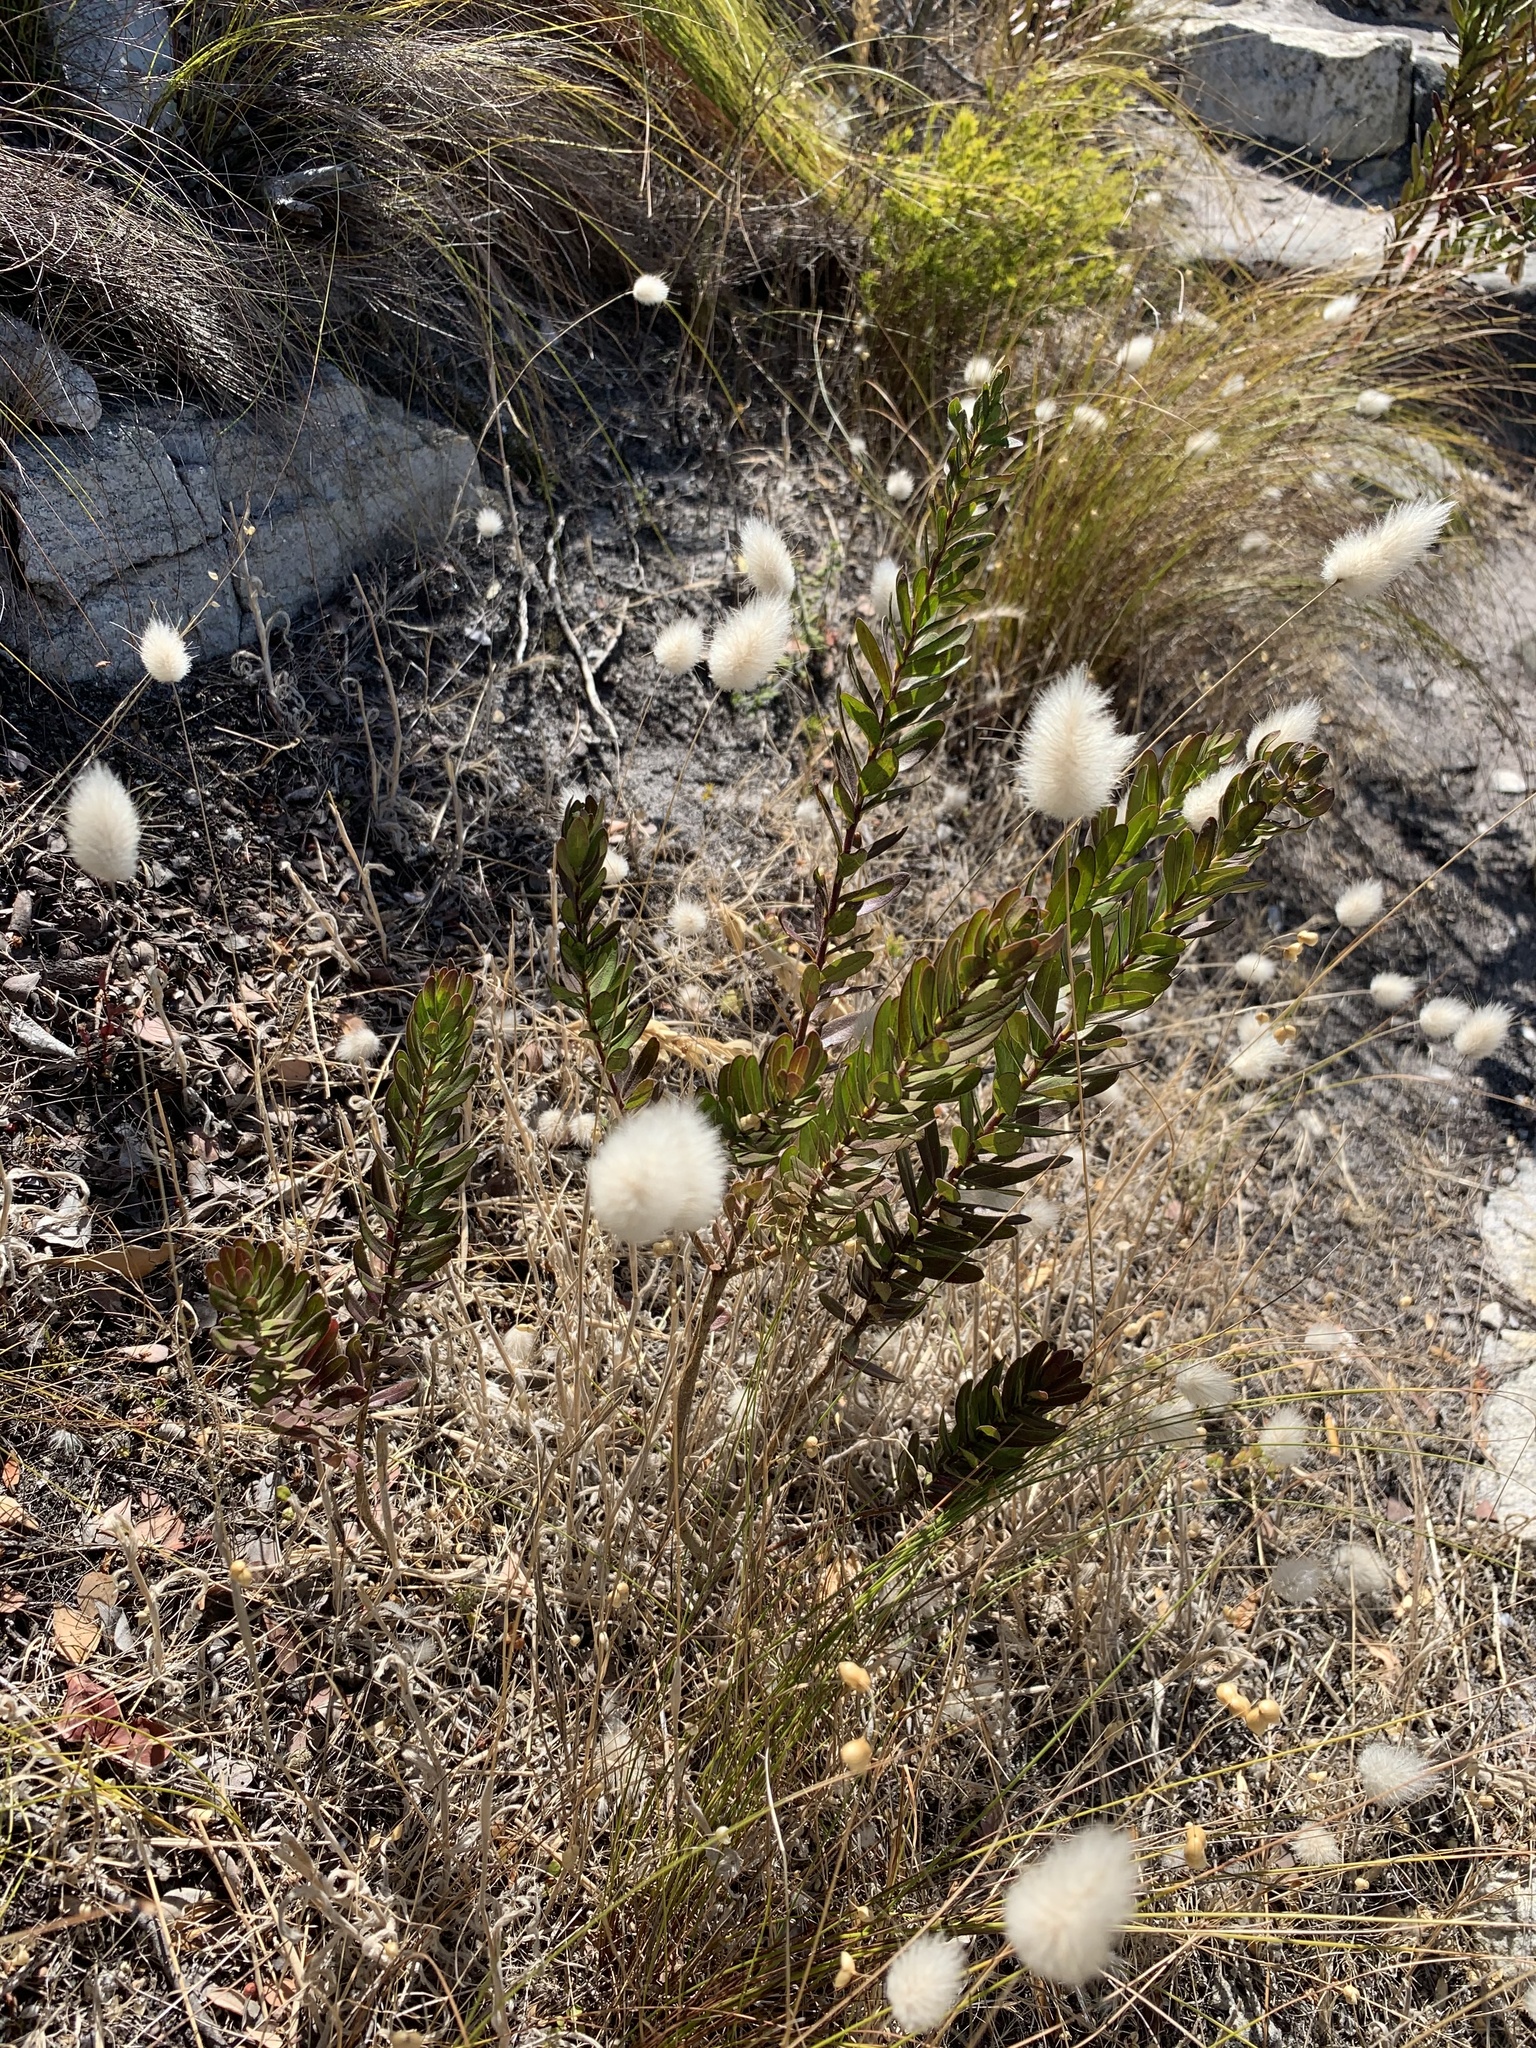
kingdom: Plantae
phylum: Tracheophyta
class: Liliopsida
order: Poales
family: Poaceae
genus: Lagurus
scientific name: Lagurus ovatus
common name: Hare's-tail
